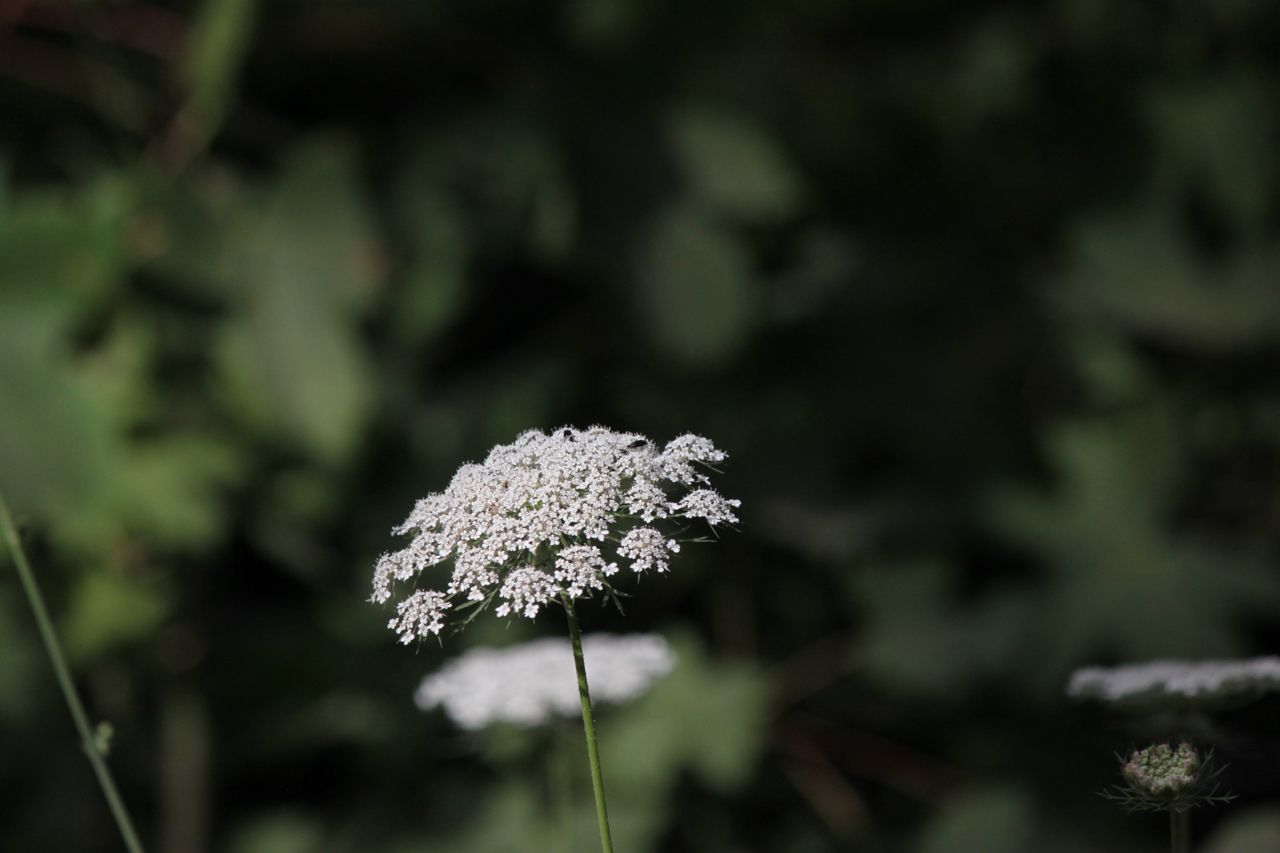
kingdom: Plantae
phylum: Tracheophyta
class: Magnoliopsida
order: Apiales
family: Apiaceae
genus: Daucus
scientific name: Daucus carota
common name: Wild carrot
